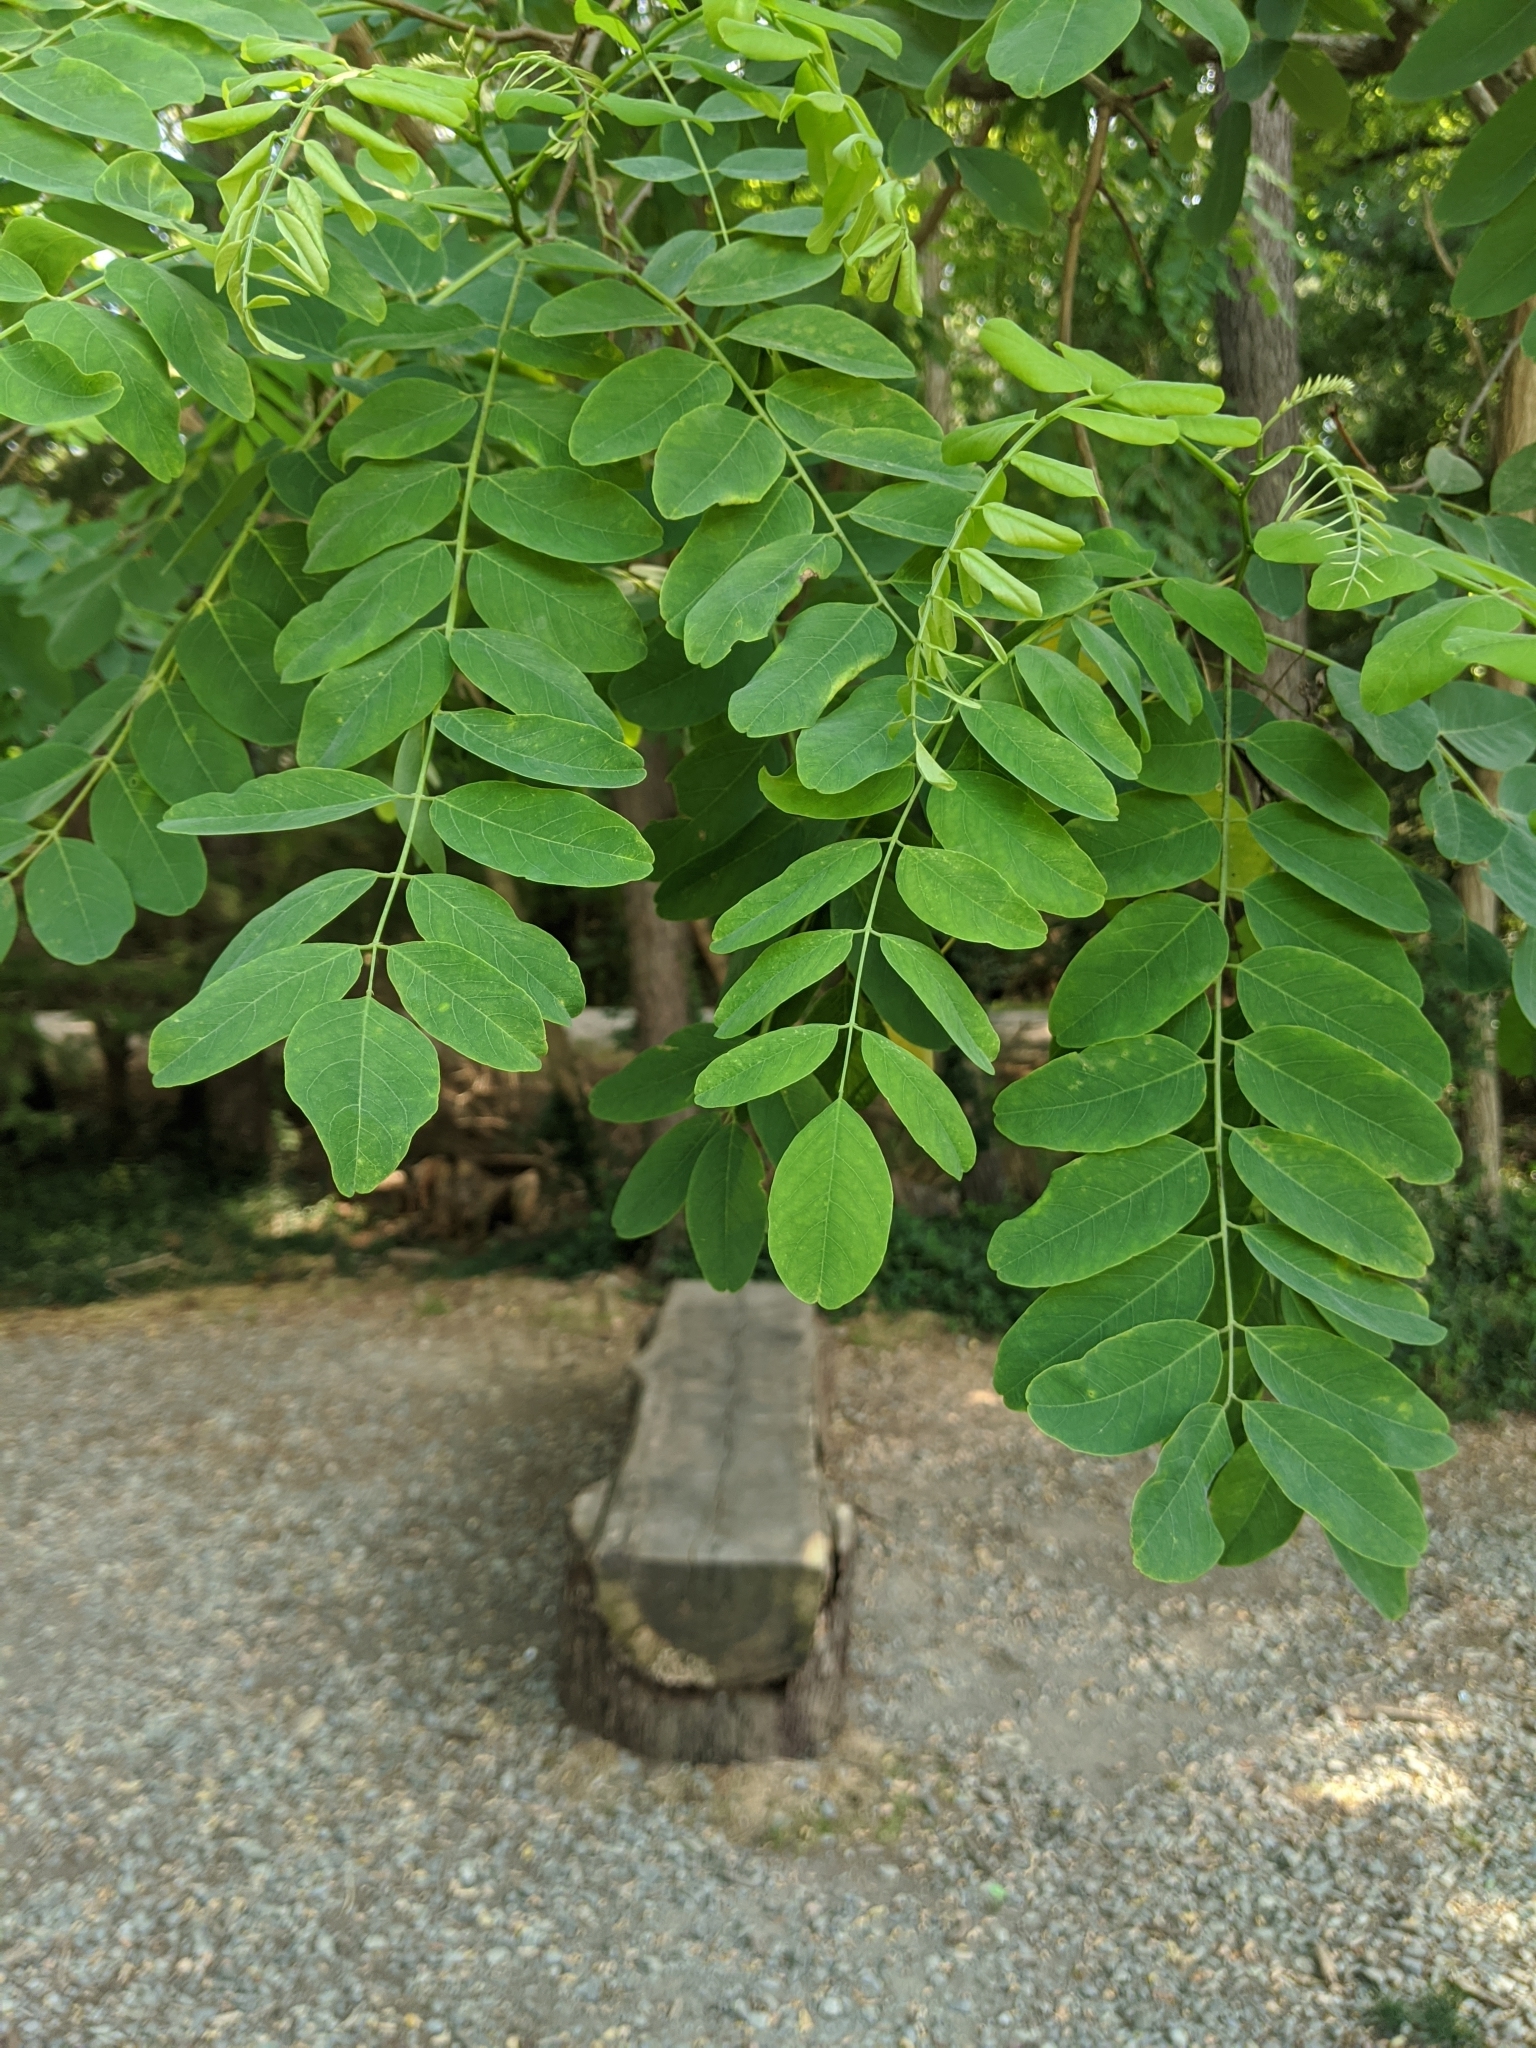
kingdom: Plantae
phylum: Tracheophyta
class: Magnoliopsida
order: Fabales
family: Fabaceae
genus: Robinia
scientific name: Robinia pseudoacacia
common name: Black locust
